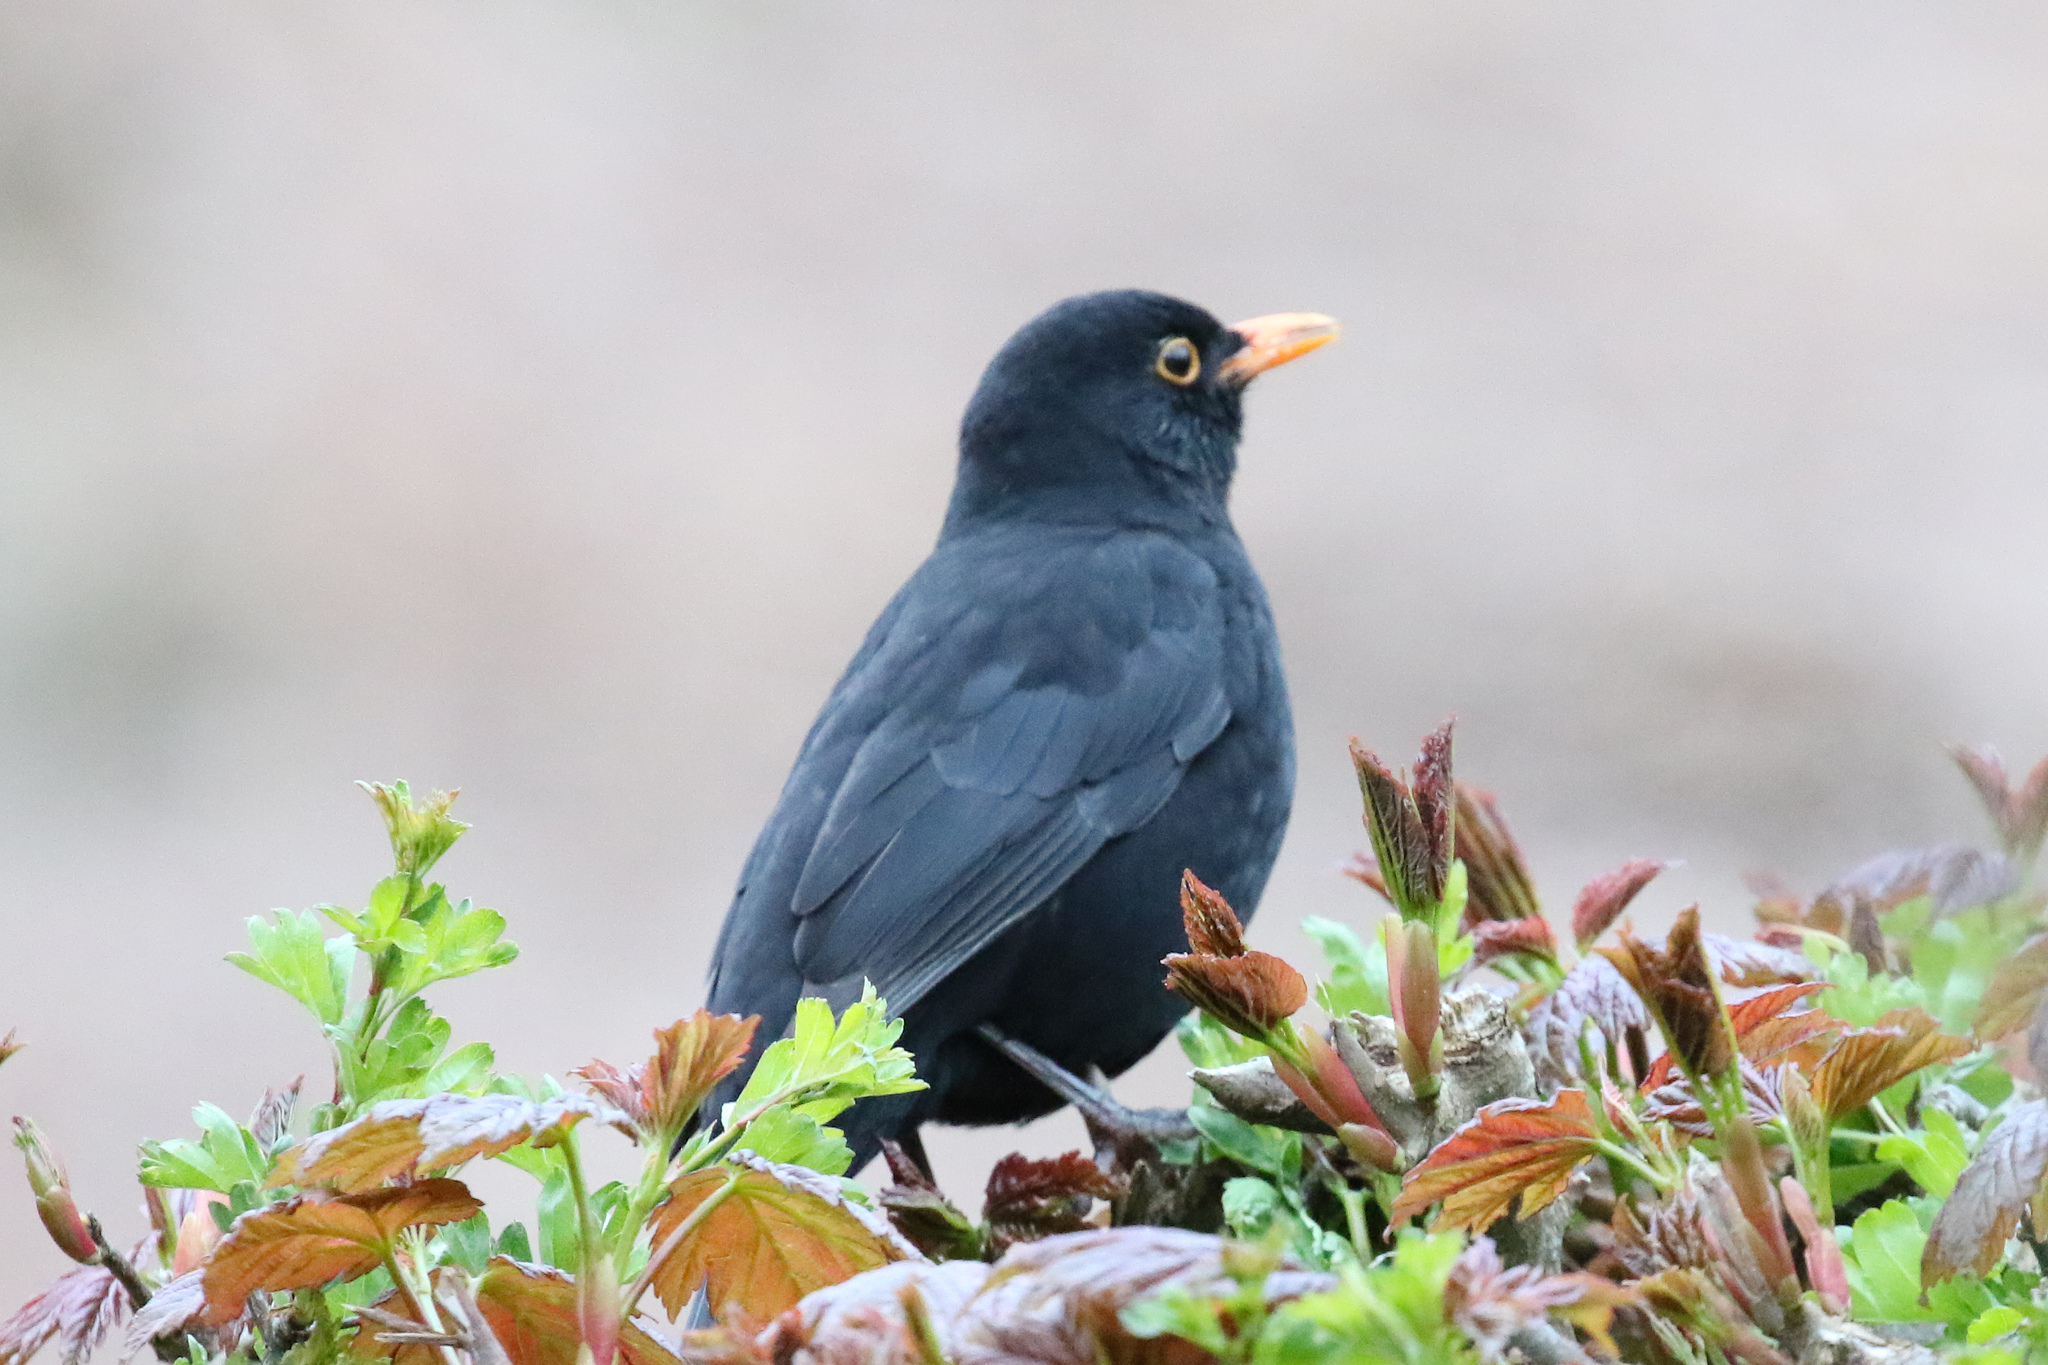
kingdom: Animalia
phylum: Chordata
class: Aves
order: Passeriformes
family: Turdidae
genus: Turdus
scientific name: Turdus merula
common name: Common blackbird
